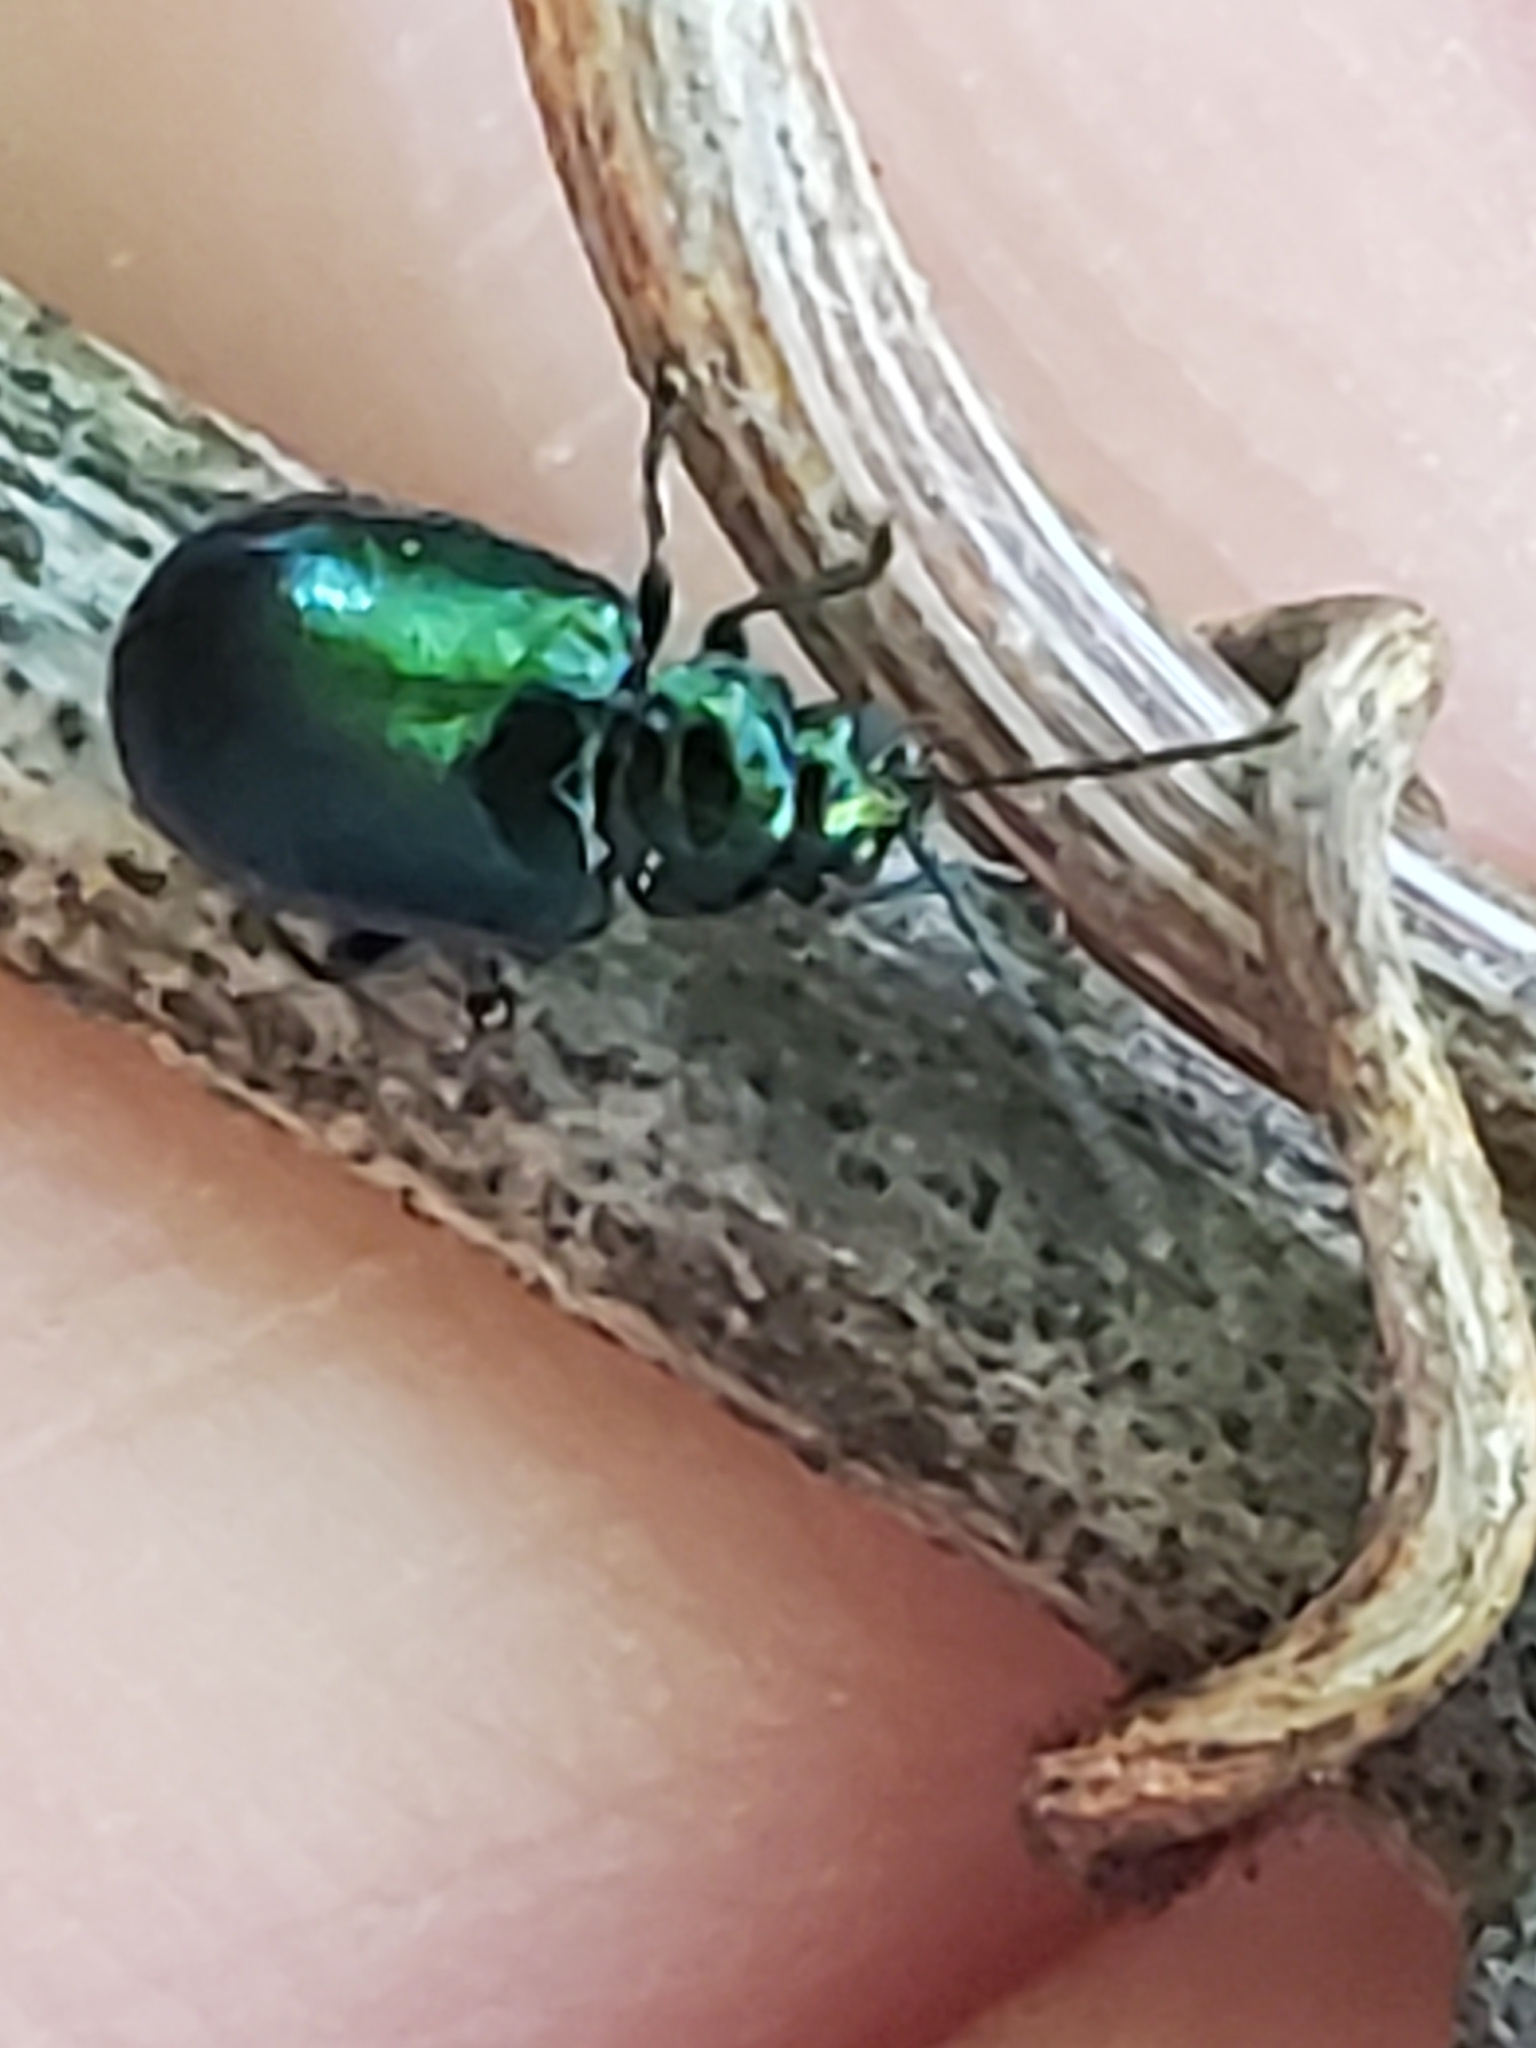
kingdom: Animalia
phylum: Arthropoda
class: Insecta
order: Coleoptera
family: Chrysomelidae
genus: Altica
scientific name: Altica chalybea
